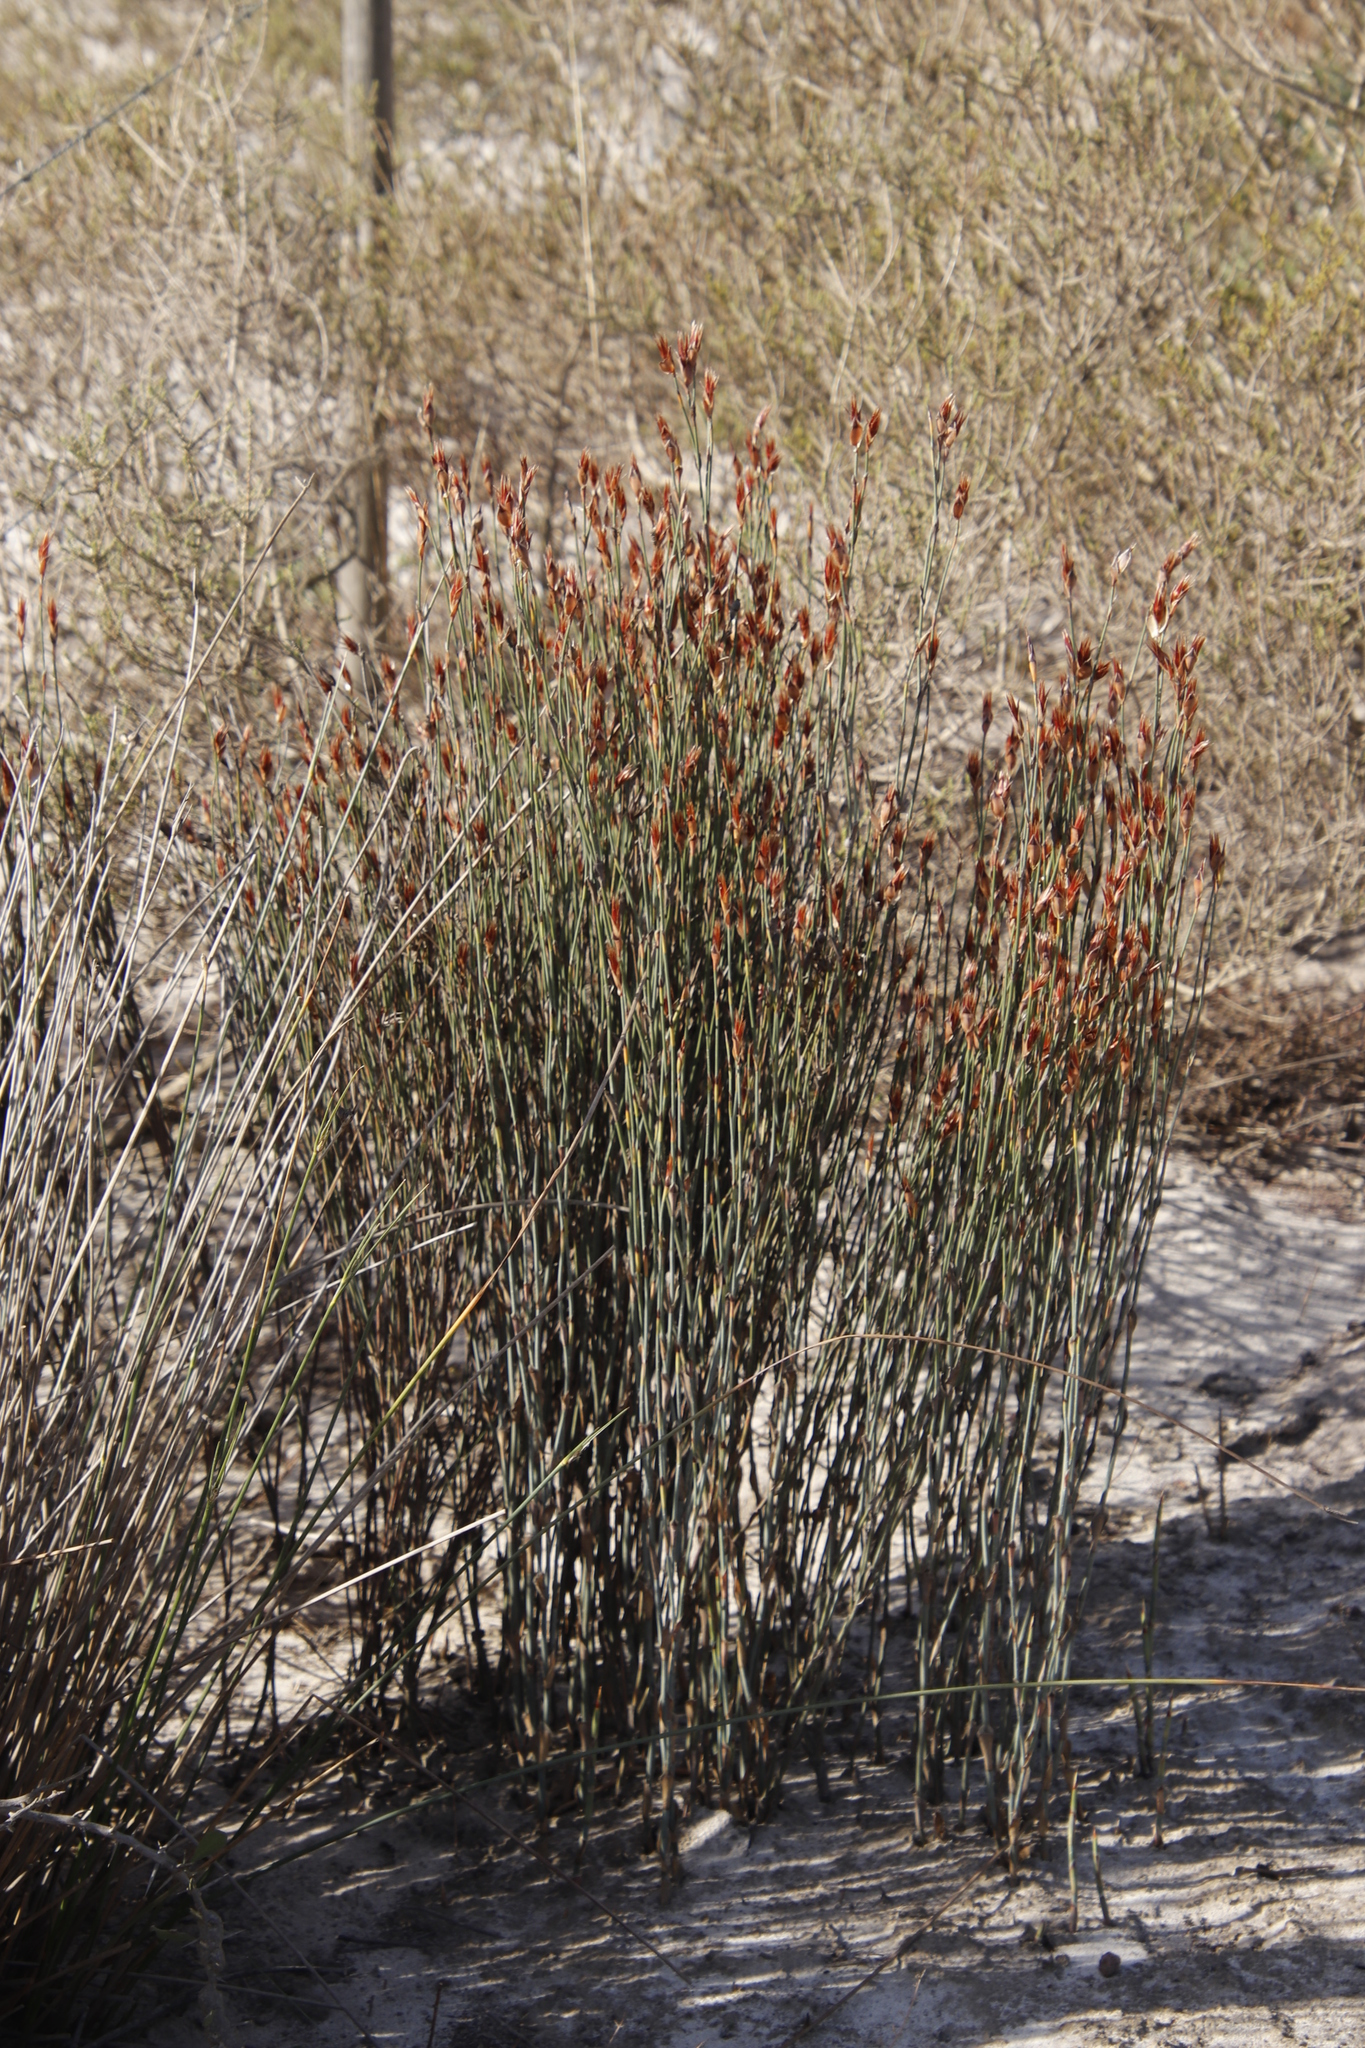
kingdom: Plantae
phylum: Tracheophyta
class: Liliopsida
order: Poales
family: Restionaceae
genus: Willdenowia
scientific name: Willdenowia incurvata
